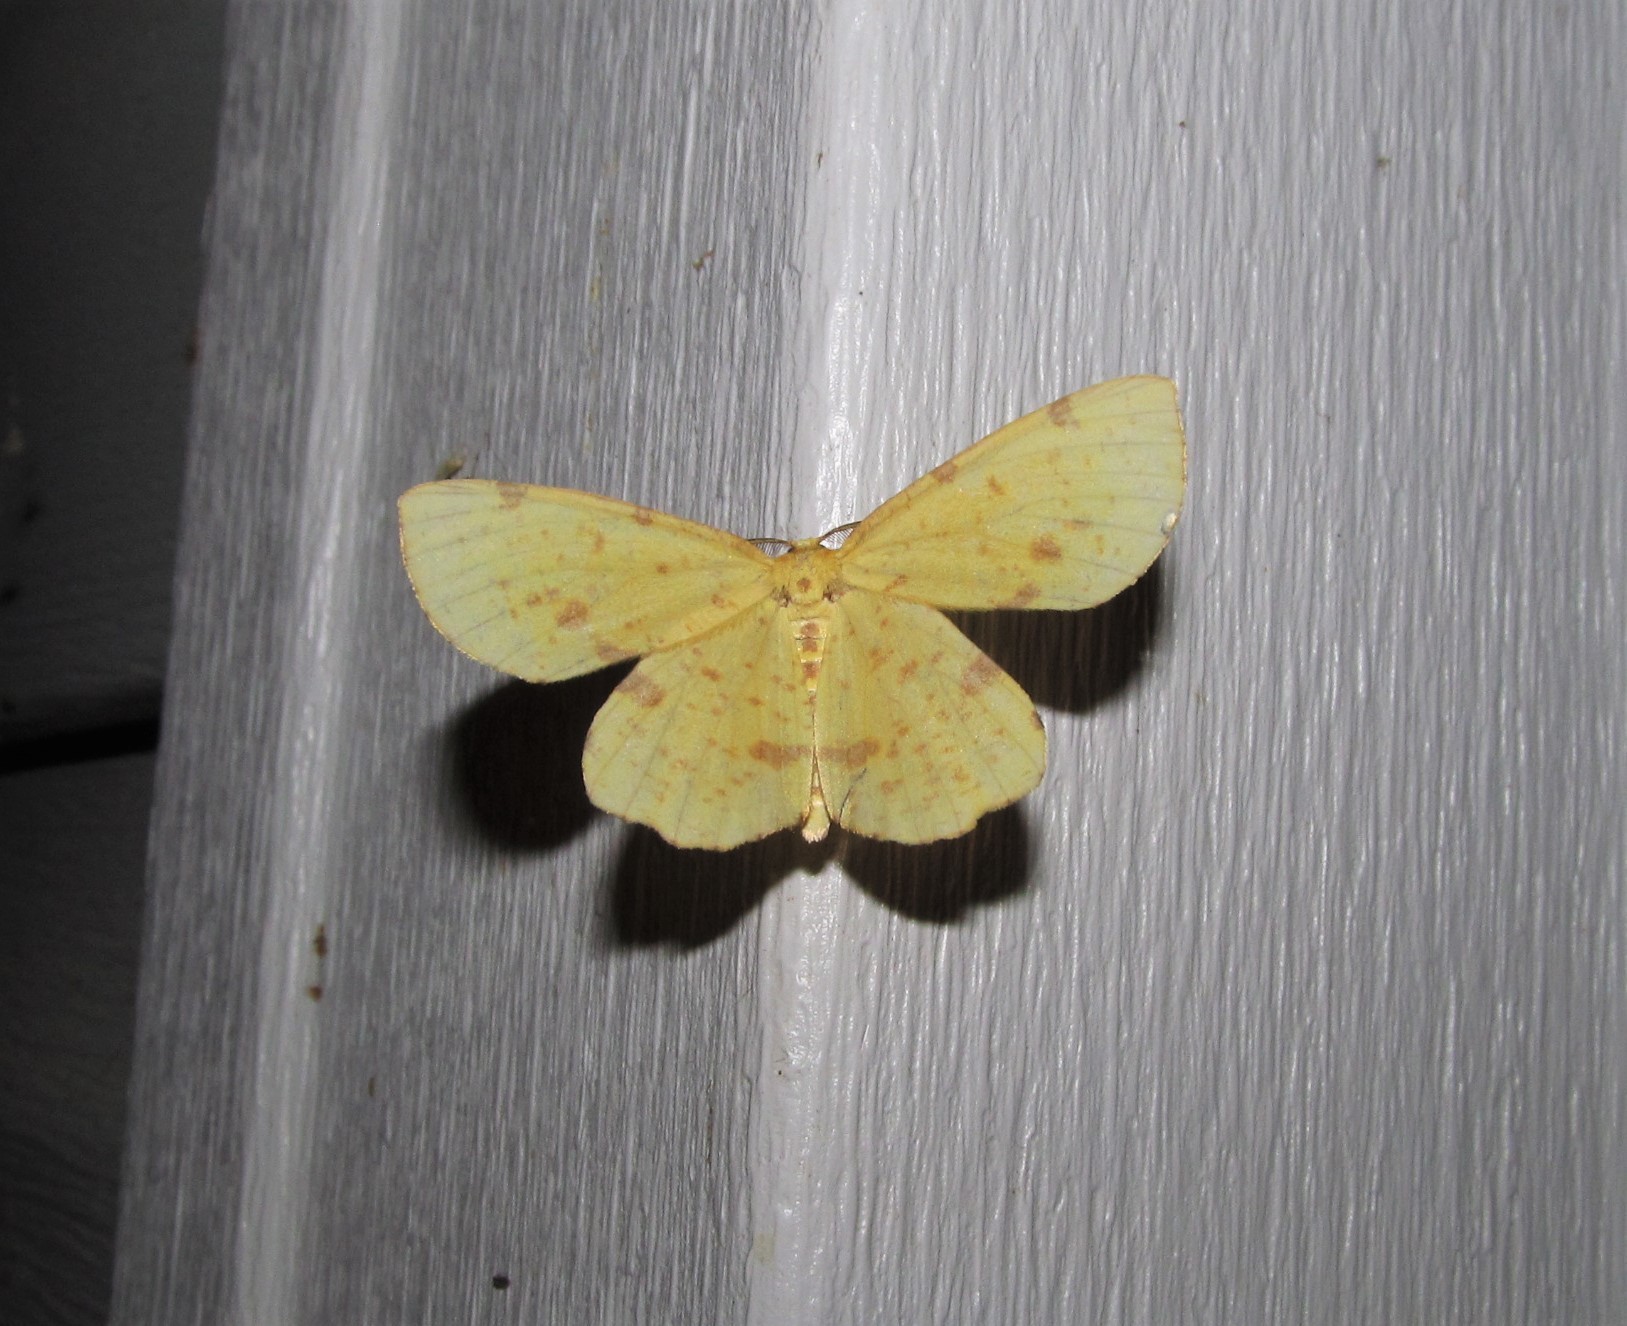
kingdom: Animalia
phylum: Arthropoda
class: Insecta
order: Lepidoptera
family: Geometridae
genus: Xanthotype
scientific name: Xanthotype
